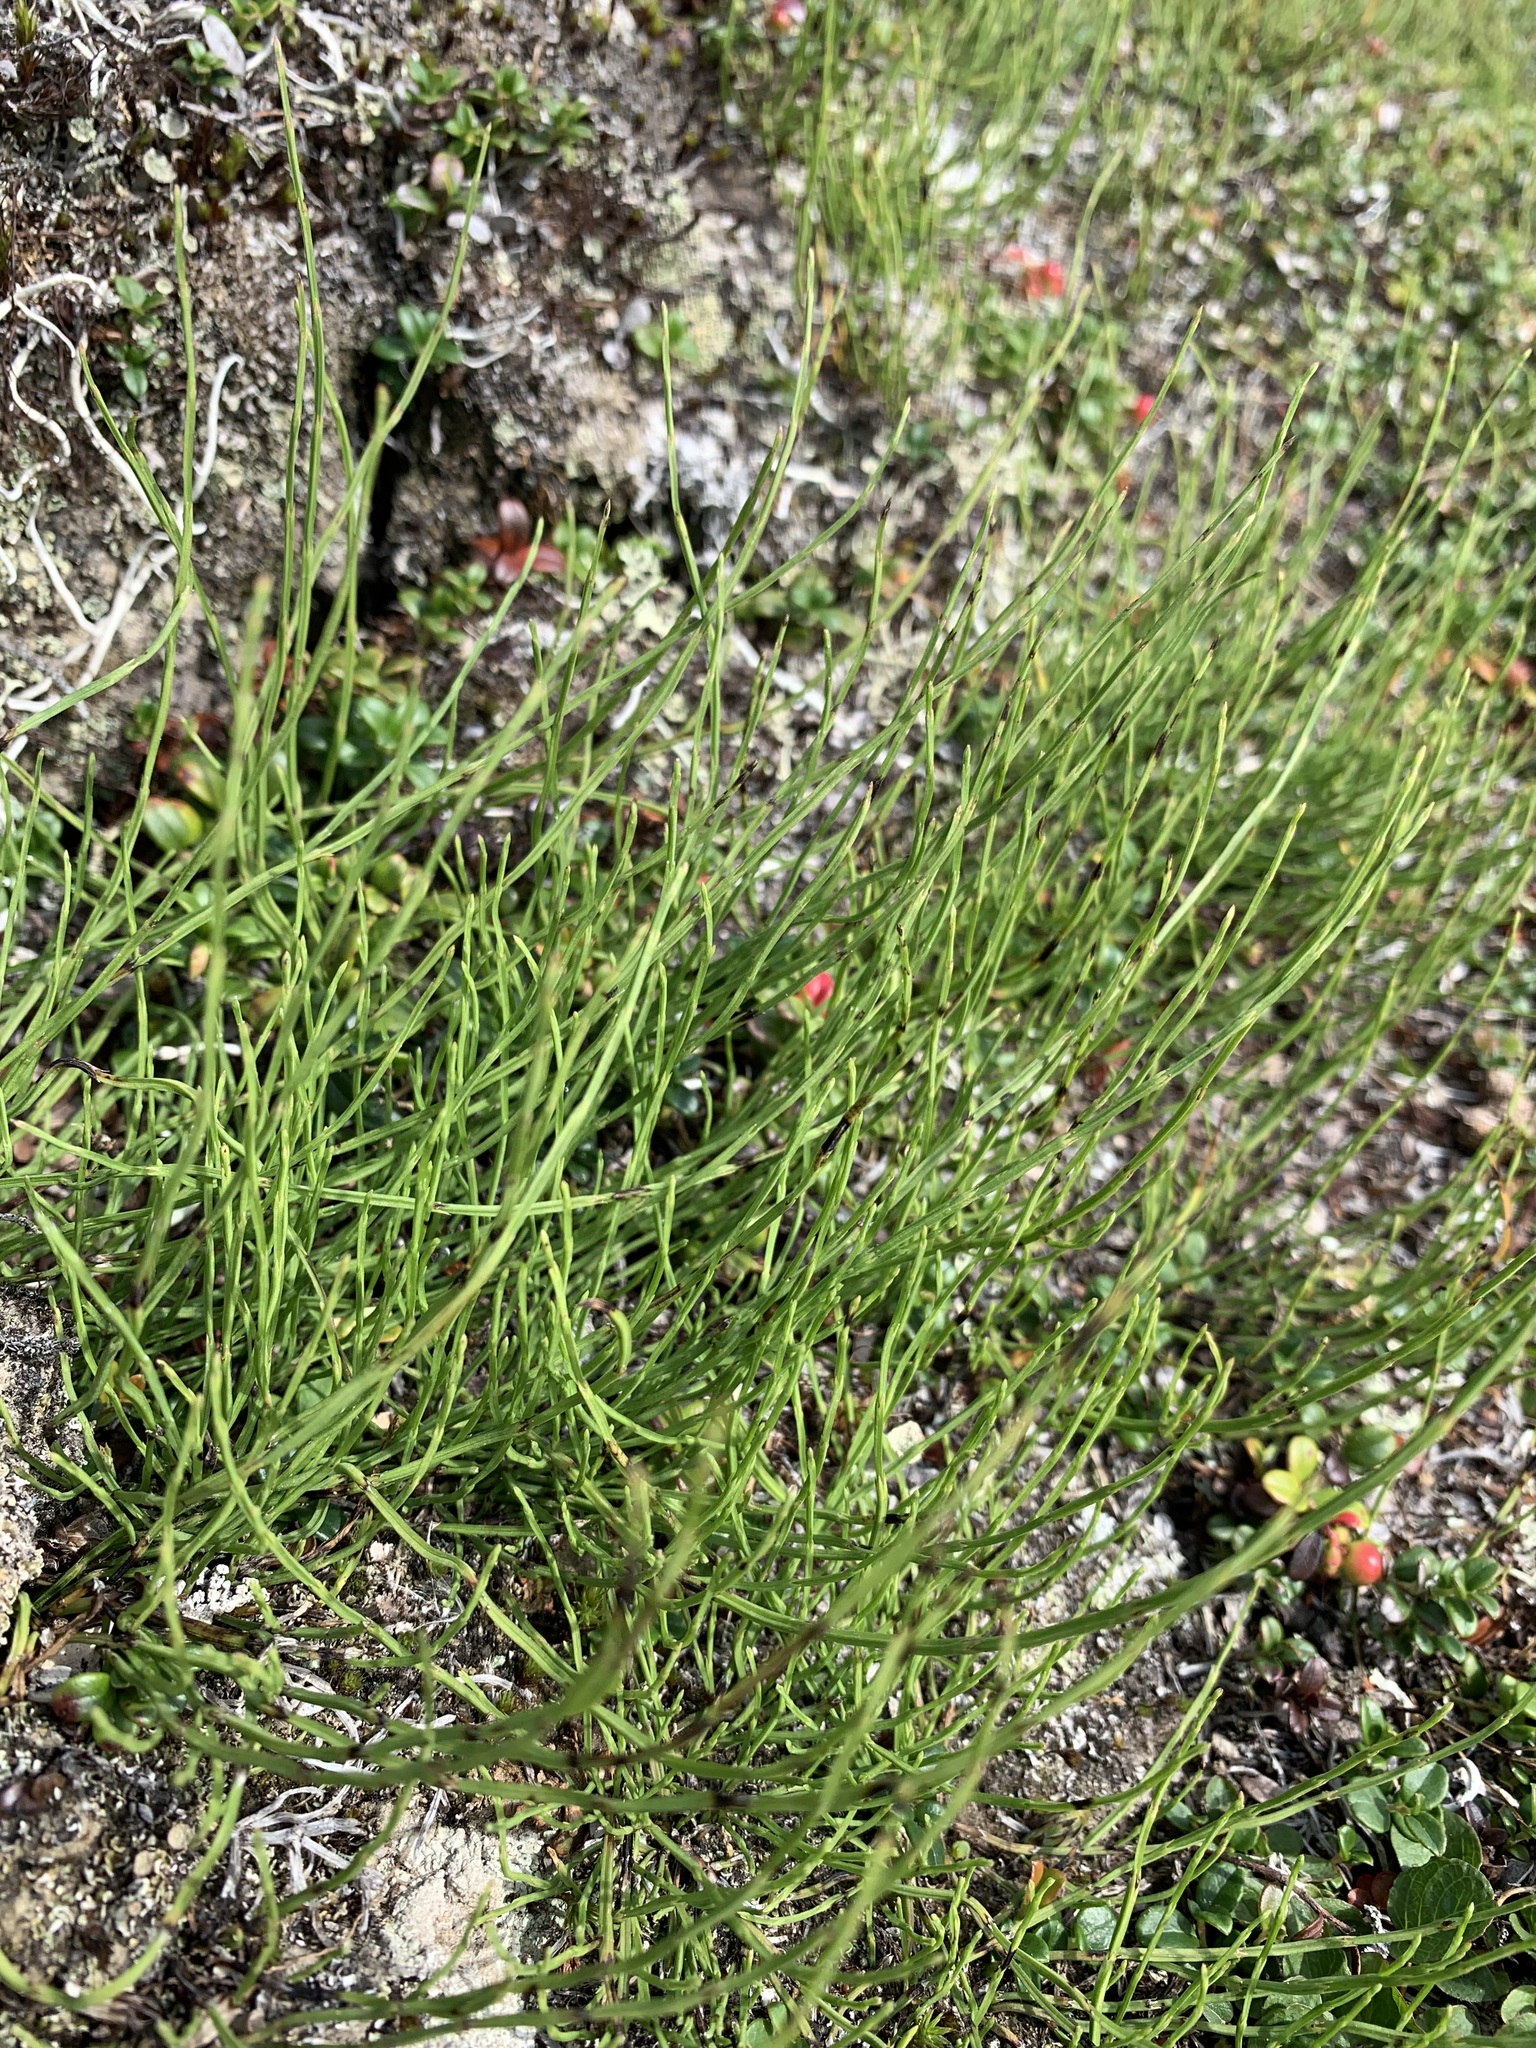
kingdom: Plantae
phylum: Tracheophyta
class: Polypodiopsida
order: Equisetales
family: Equisetaceae
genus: Equisetum
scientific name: Equisetum arvense
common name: Field horsetail
